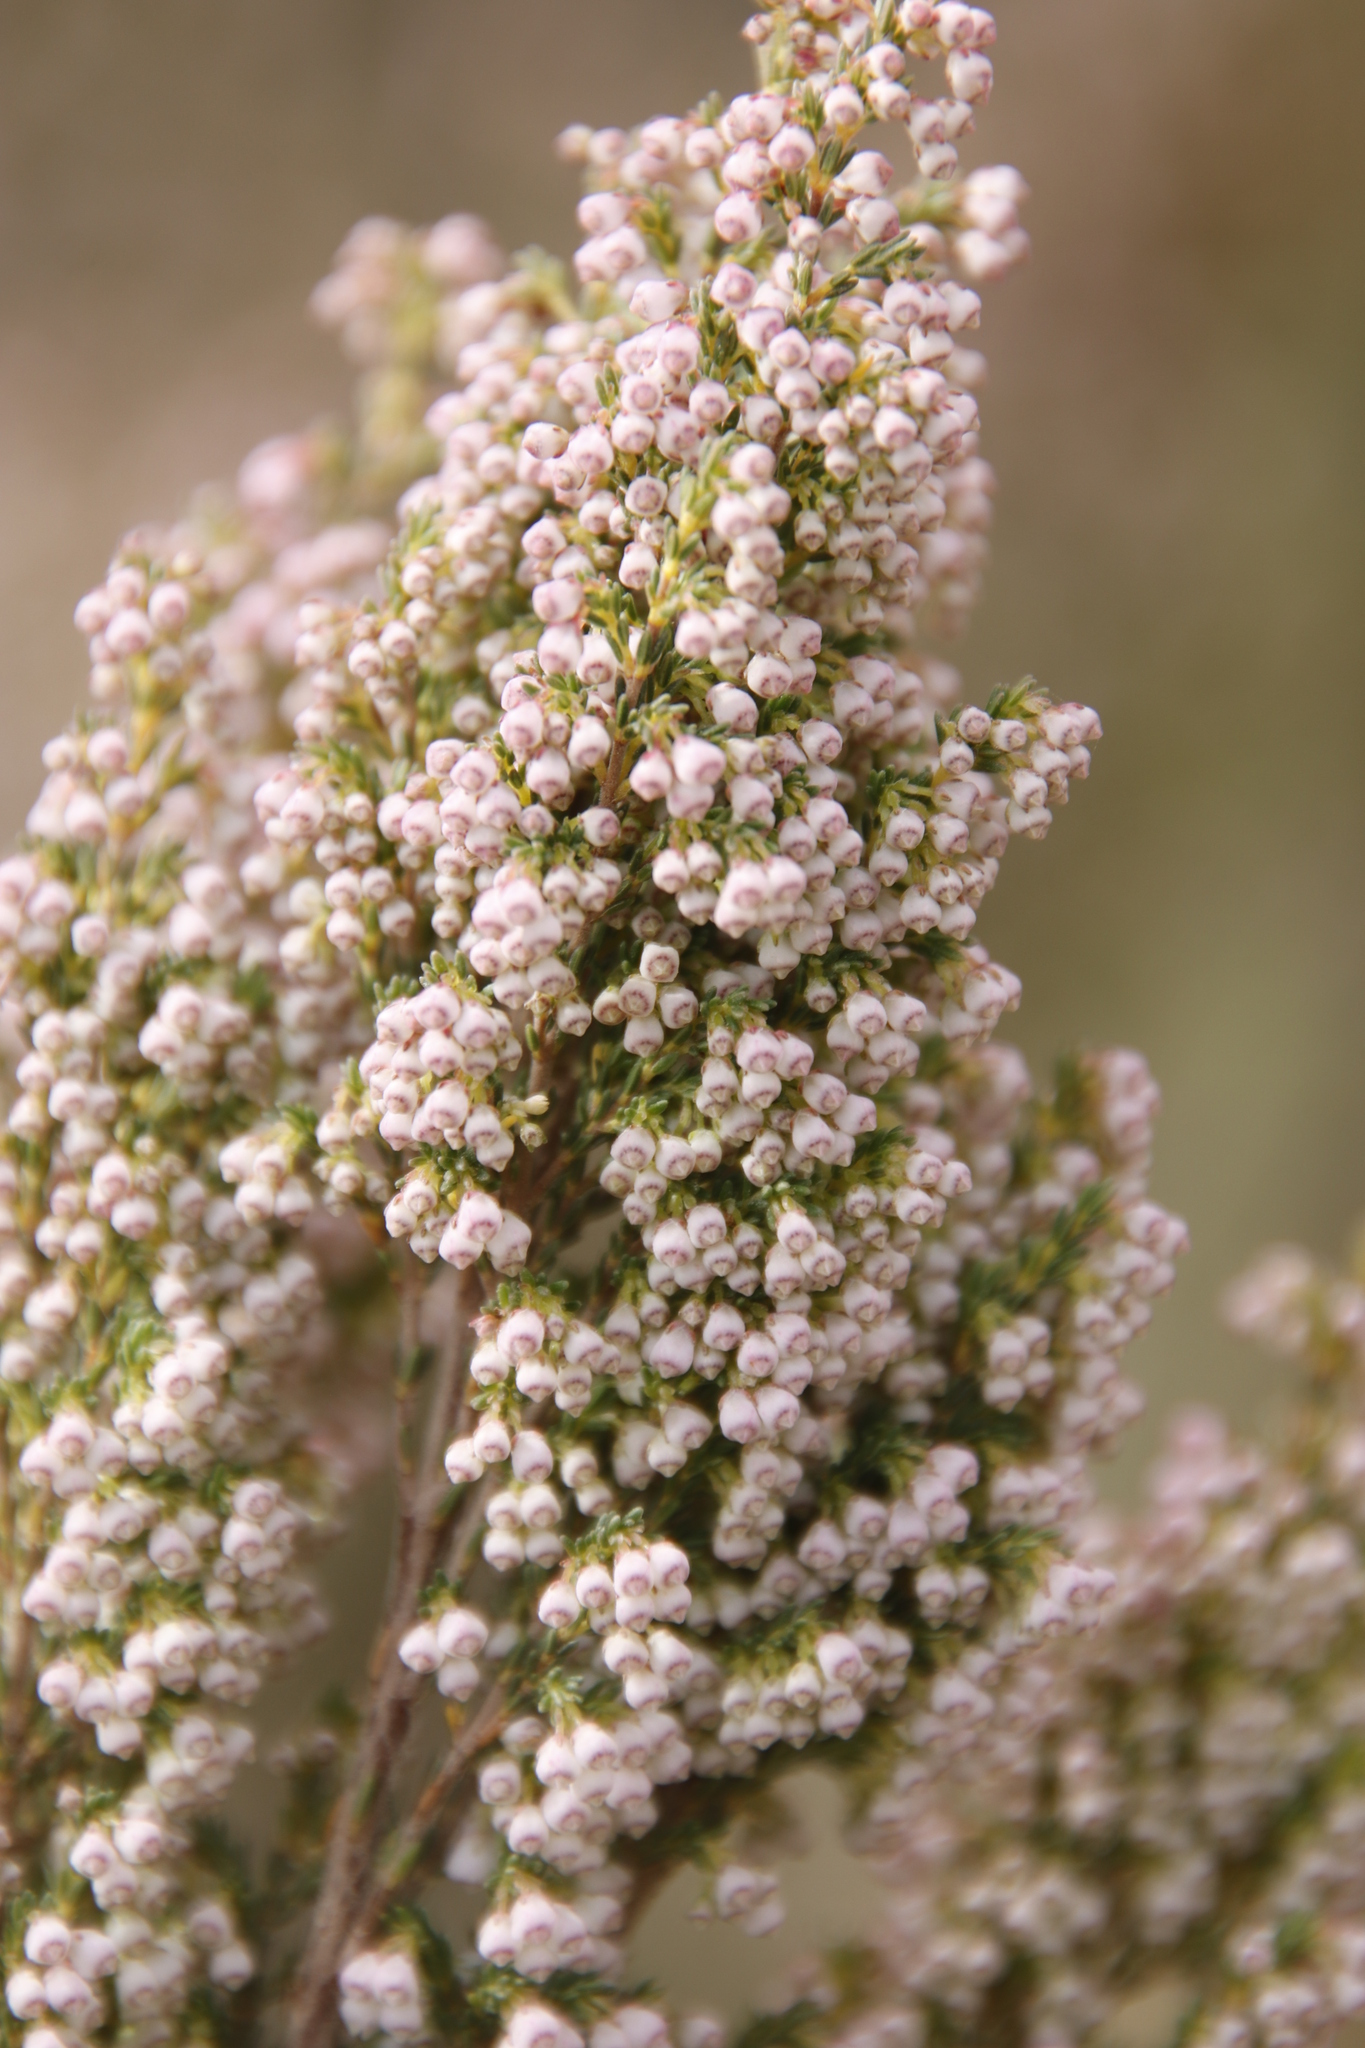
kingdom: Plantae
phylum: Tracheophyta
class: Magnoliopsida
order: Ericales
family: Ericaceae
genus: Erica
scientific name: Erica quadrangularis
